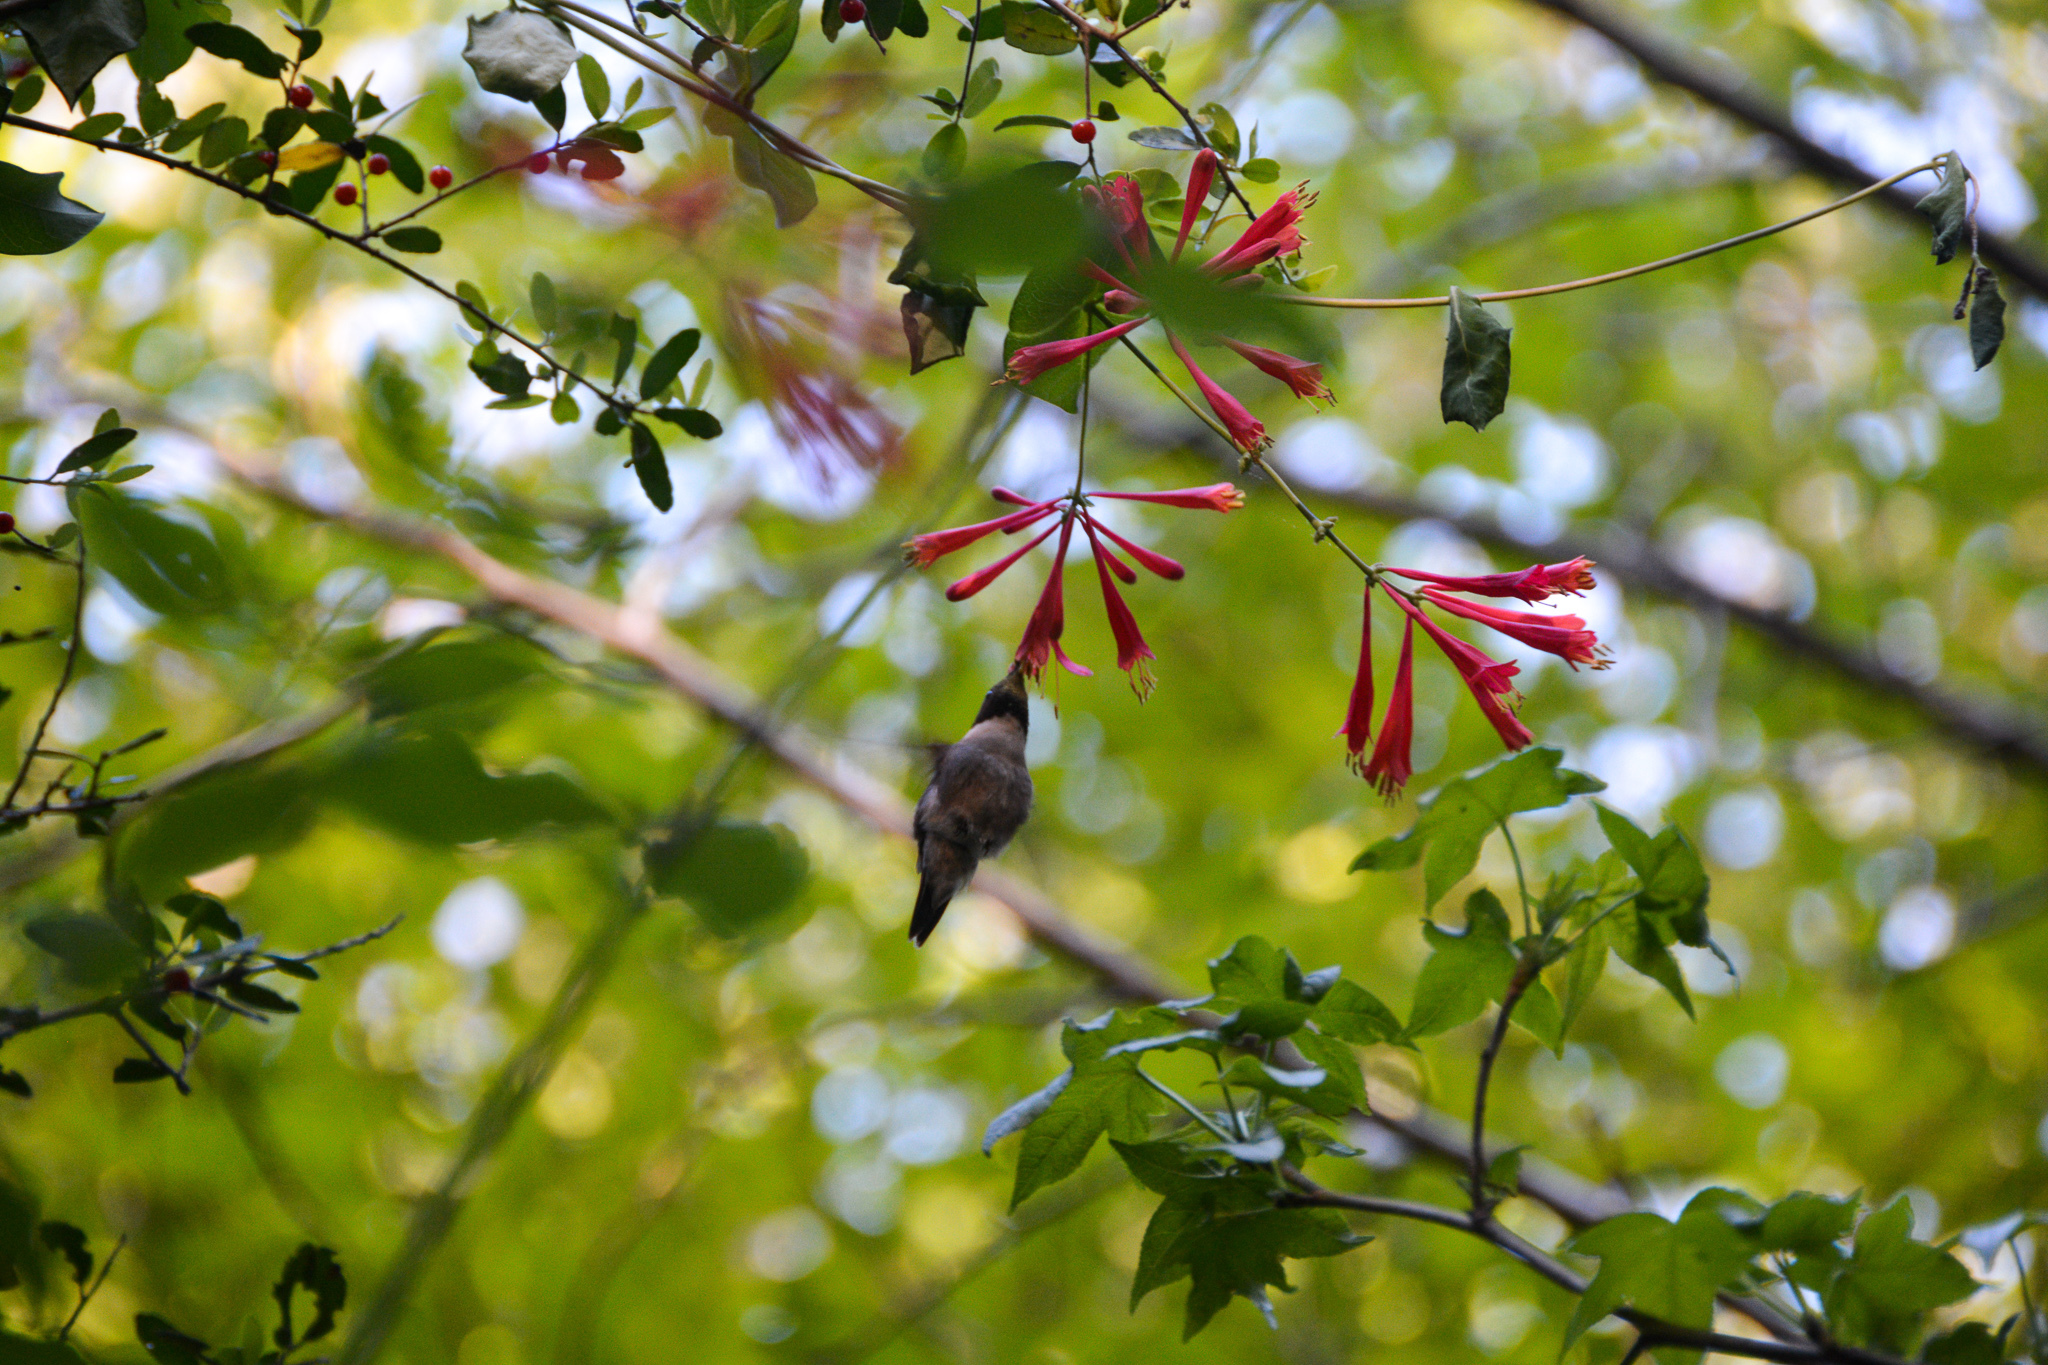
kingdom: Animalia
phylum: Chordata
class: Aves
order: Apodiformes
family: Trochilidae
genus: Archilochus
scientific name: Archilochus colubris
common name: Ruby-throated hummingbird
